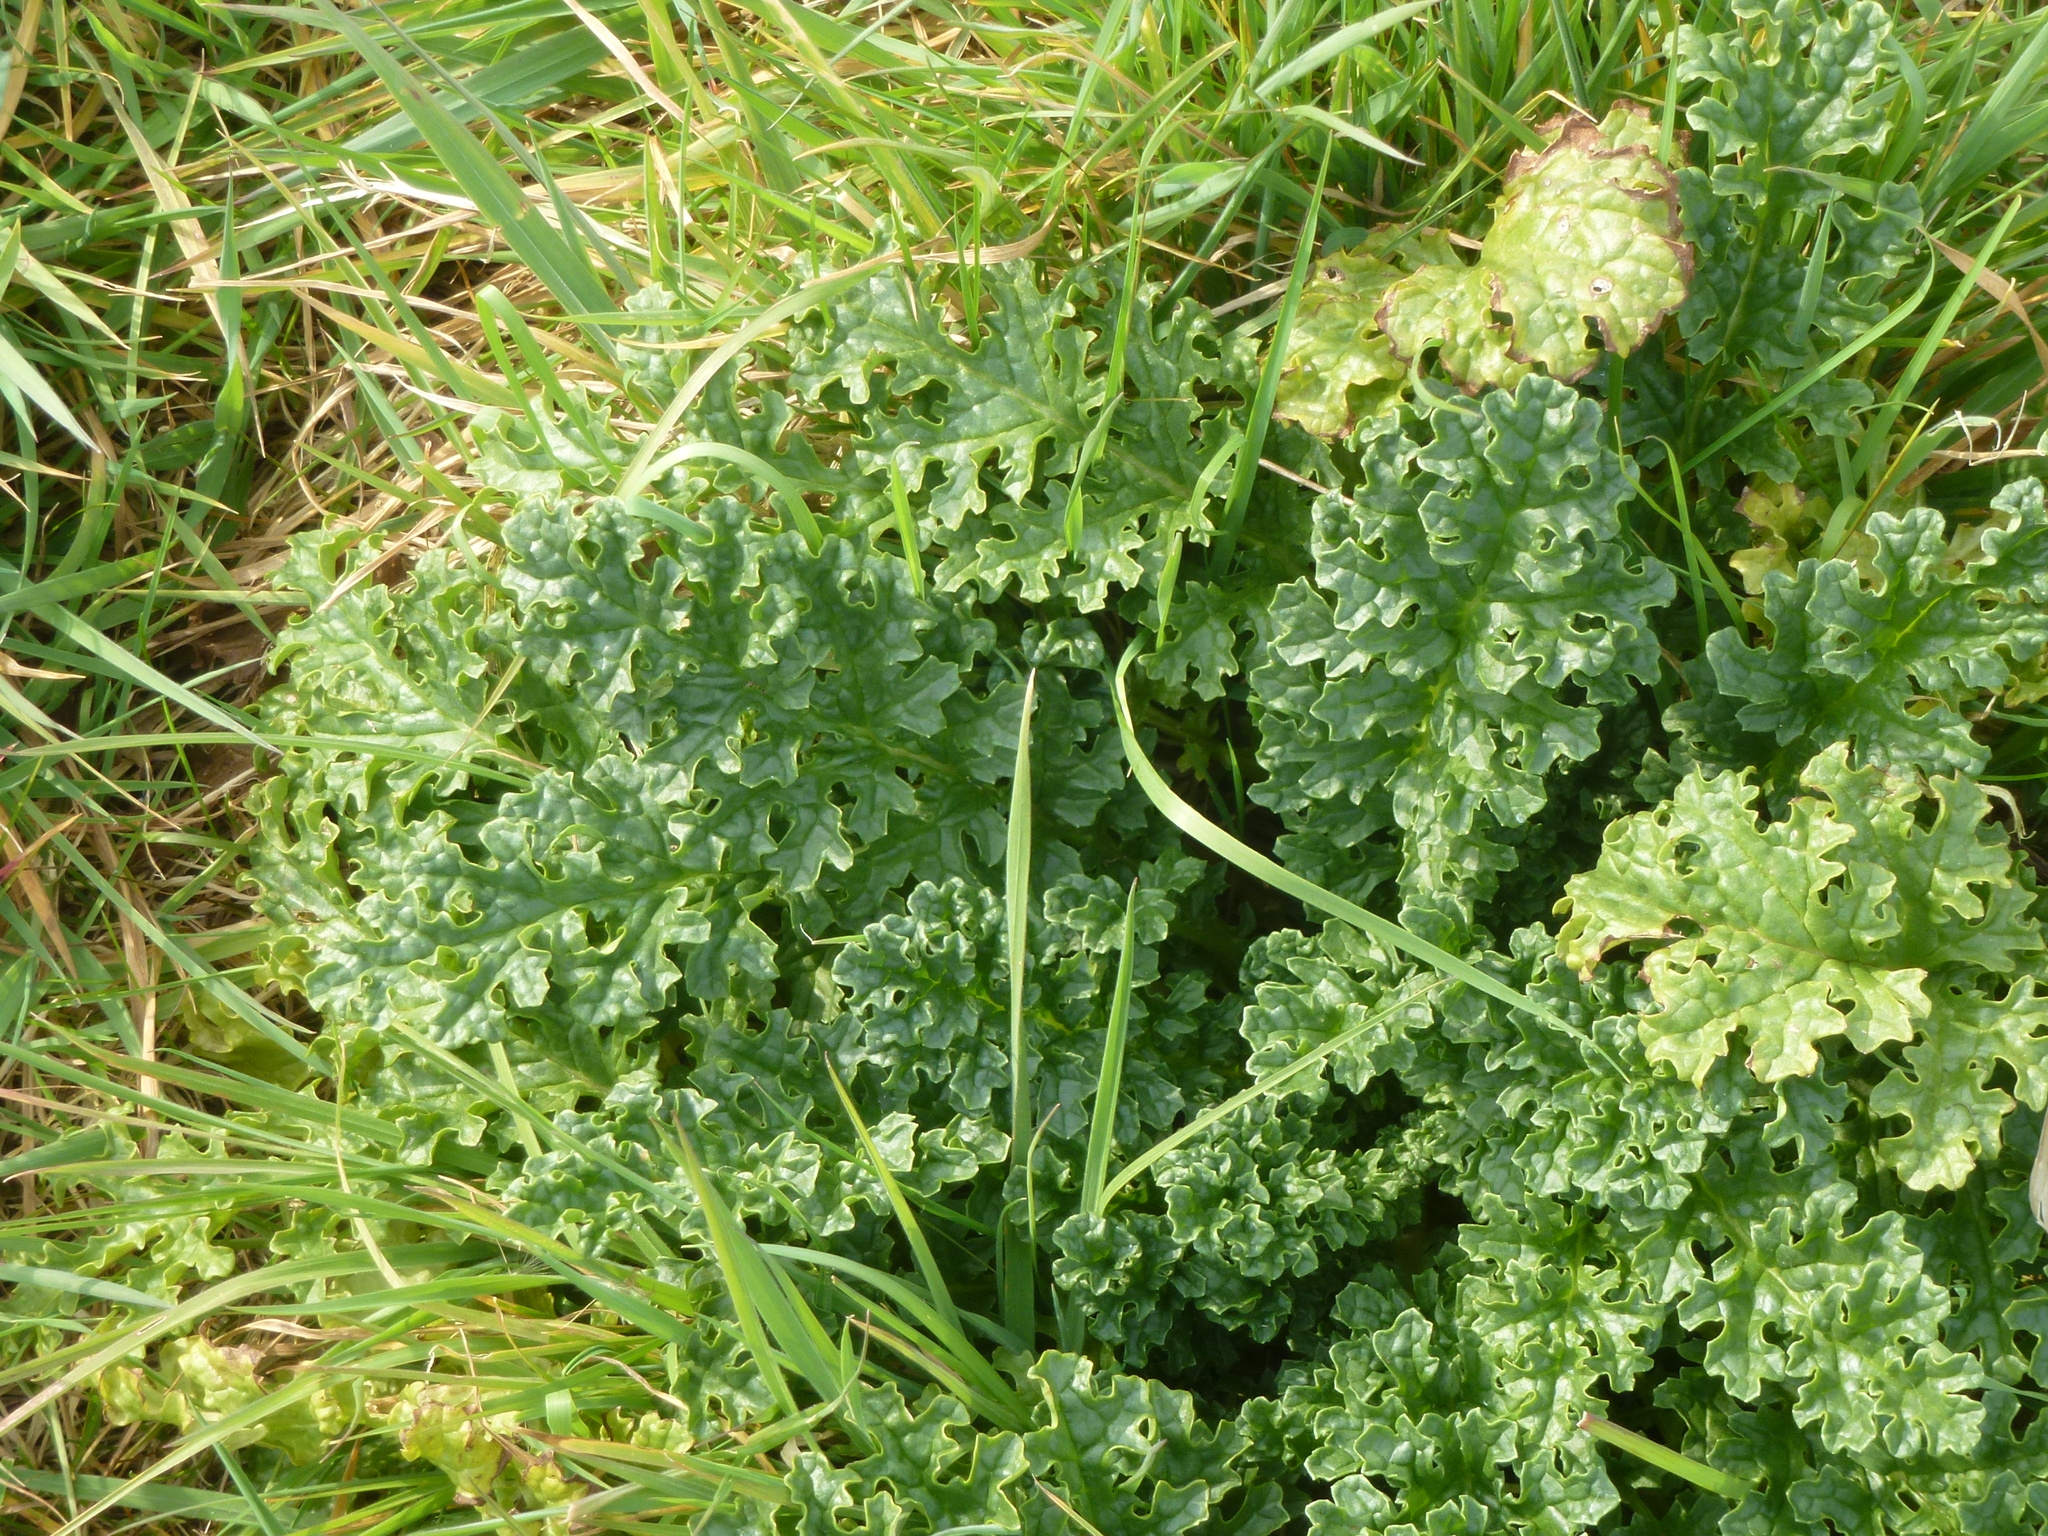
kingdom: Plantae
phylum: Tracheophyta
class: Magnoliopsida
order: Asterales
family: Asteraceae
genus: Jacobaea
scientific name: Jacobaea vulgaris
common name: Stinking willie
